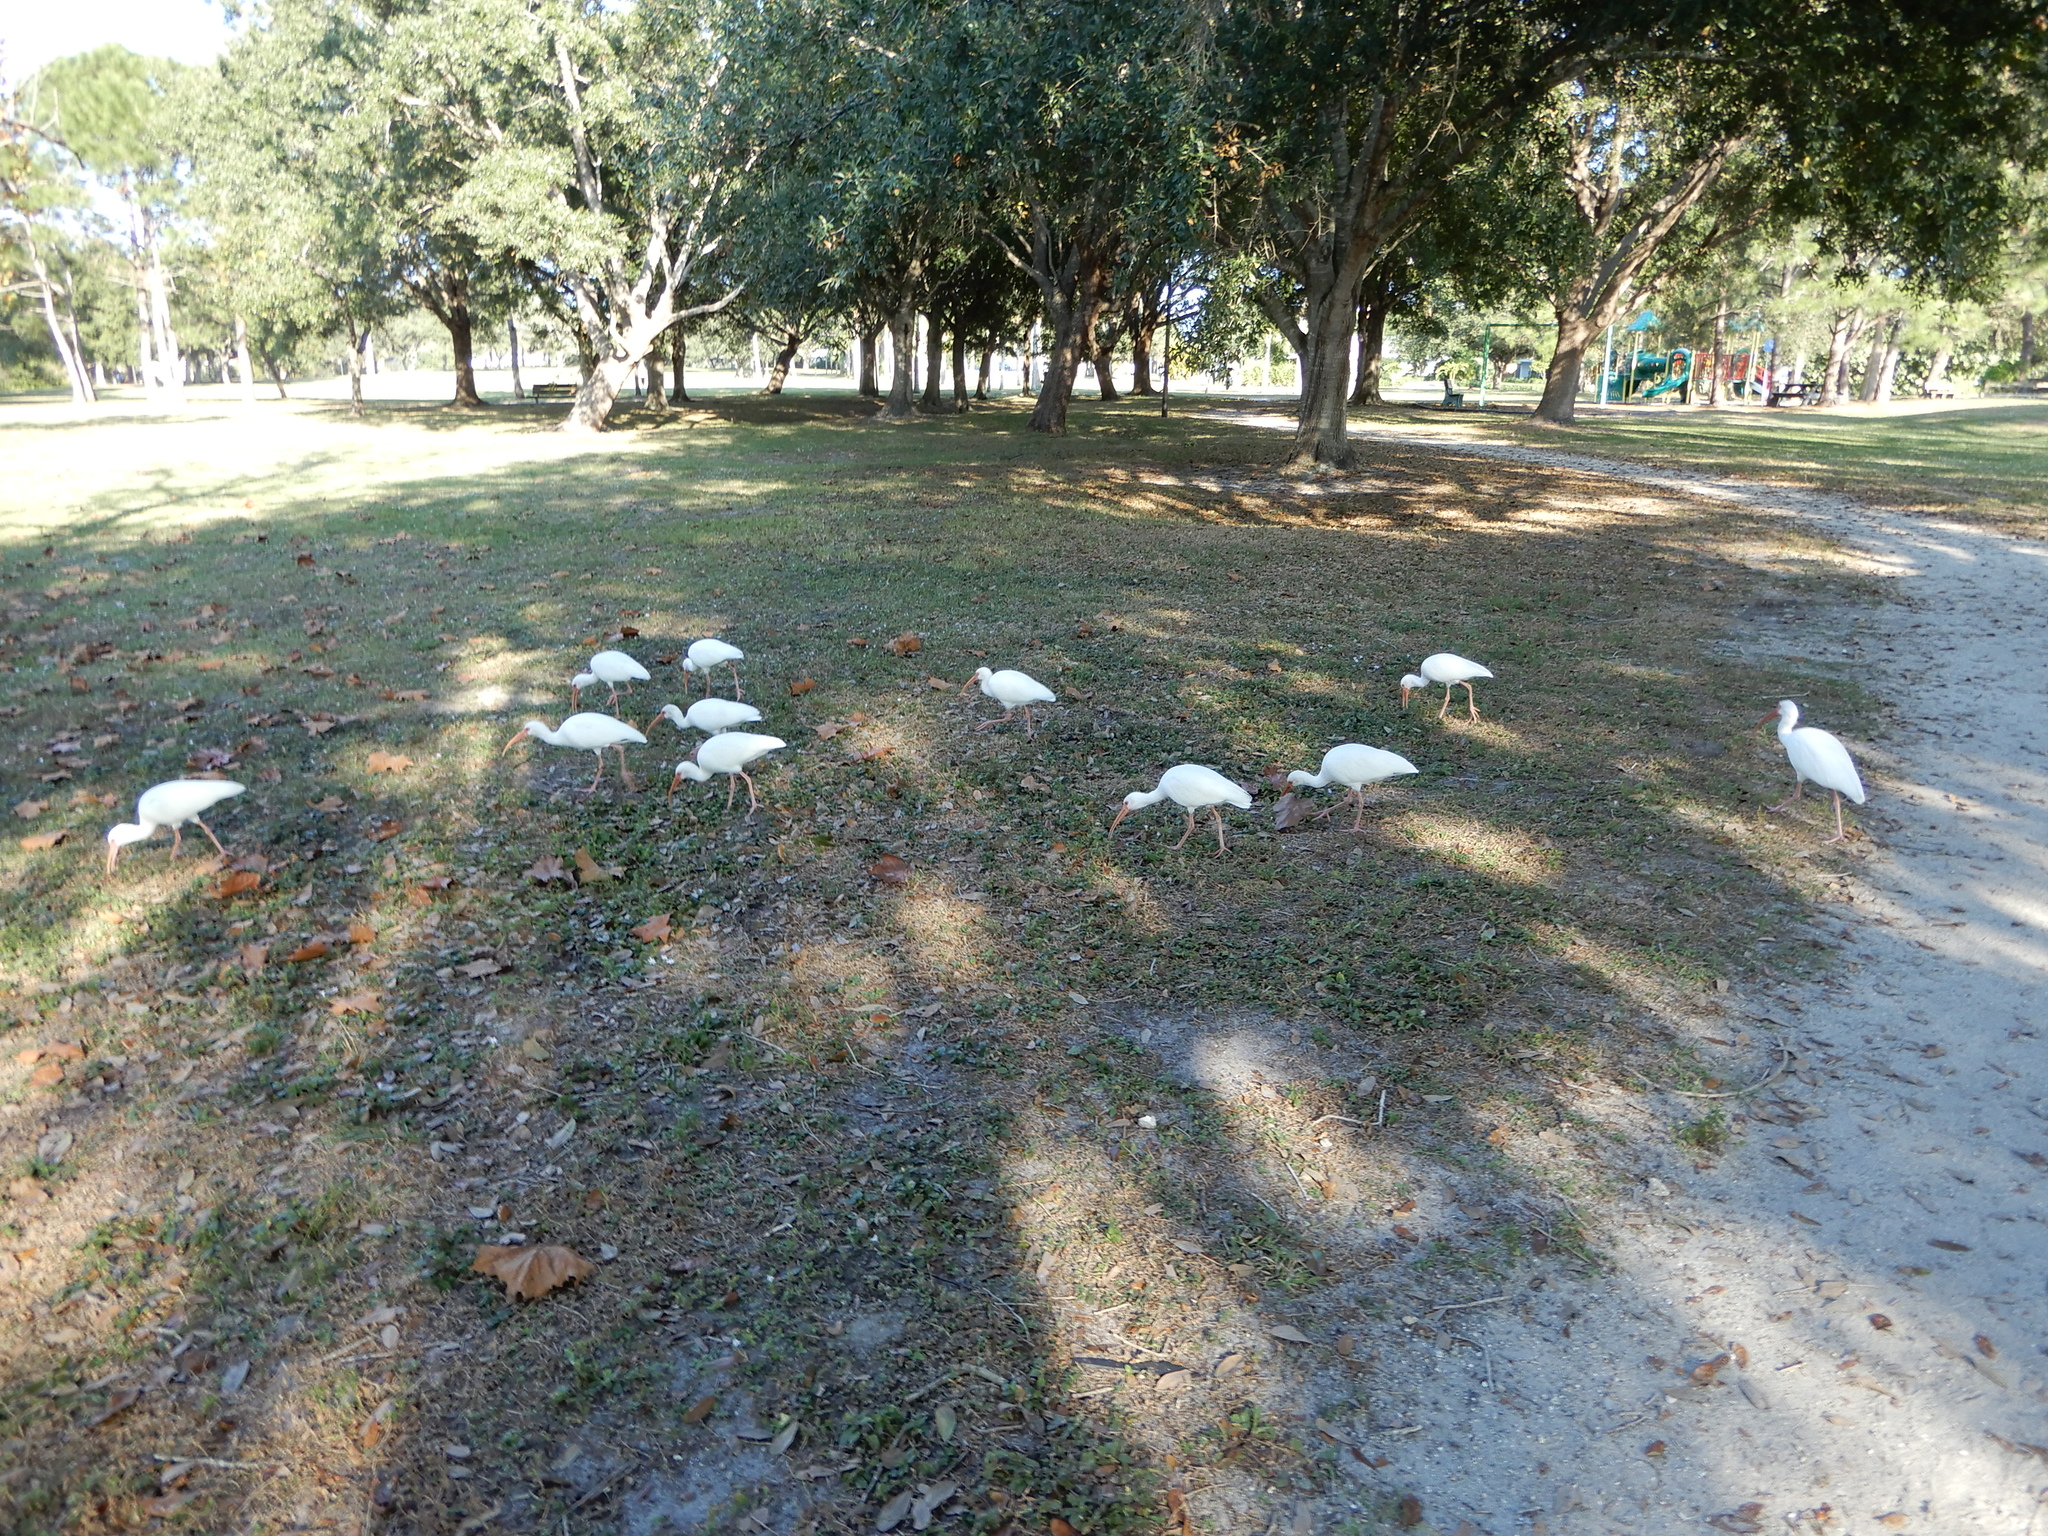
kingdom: Animalia
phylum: Chordata
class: Aves
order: Pelecaniformes
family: Threskiornithidae
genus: Eudocimus
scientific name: Eudocimus albus
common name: White ibis
